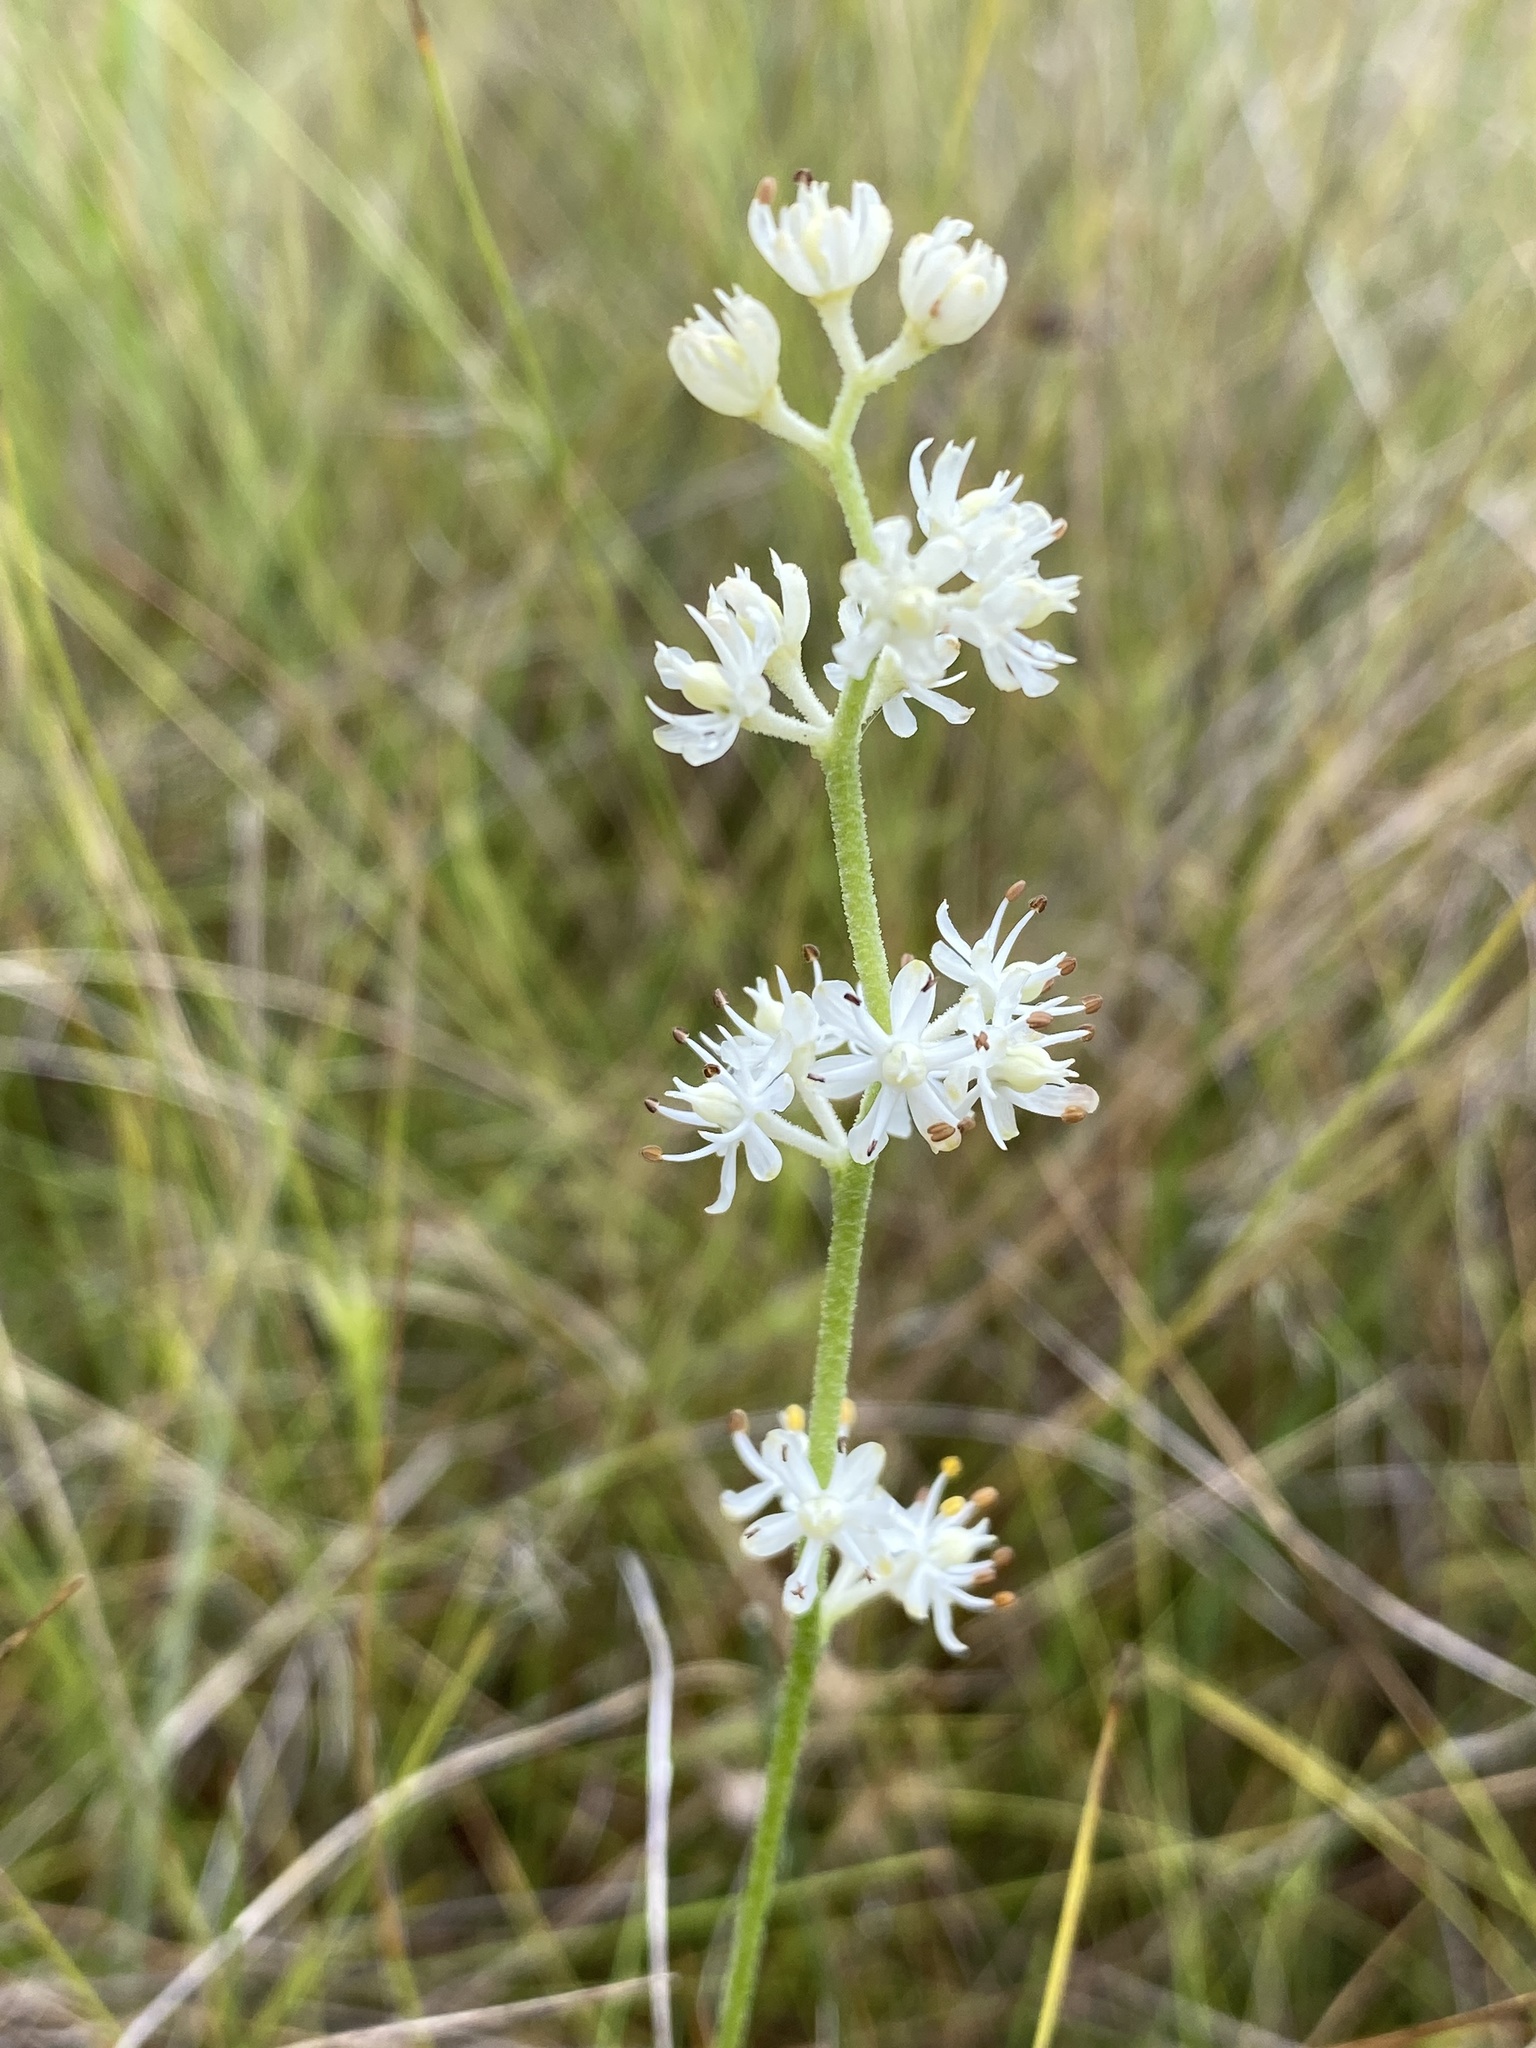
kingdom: Plantae
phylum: Tracheophyta
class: Liliopsida
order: Alismatales
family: Tofieldiaceae
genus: Triantha
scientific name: Triantha racemosa
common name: Coastal false asphodel
